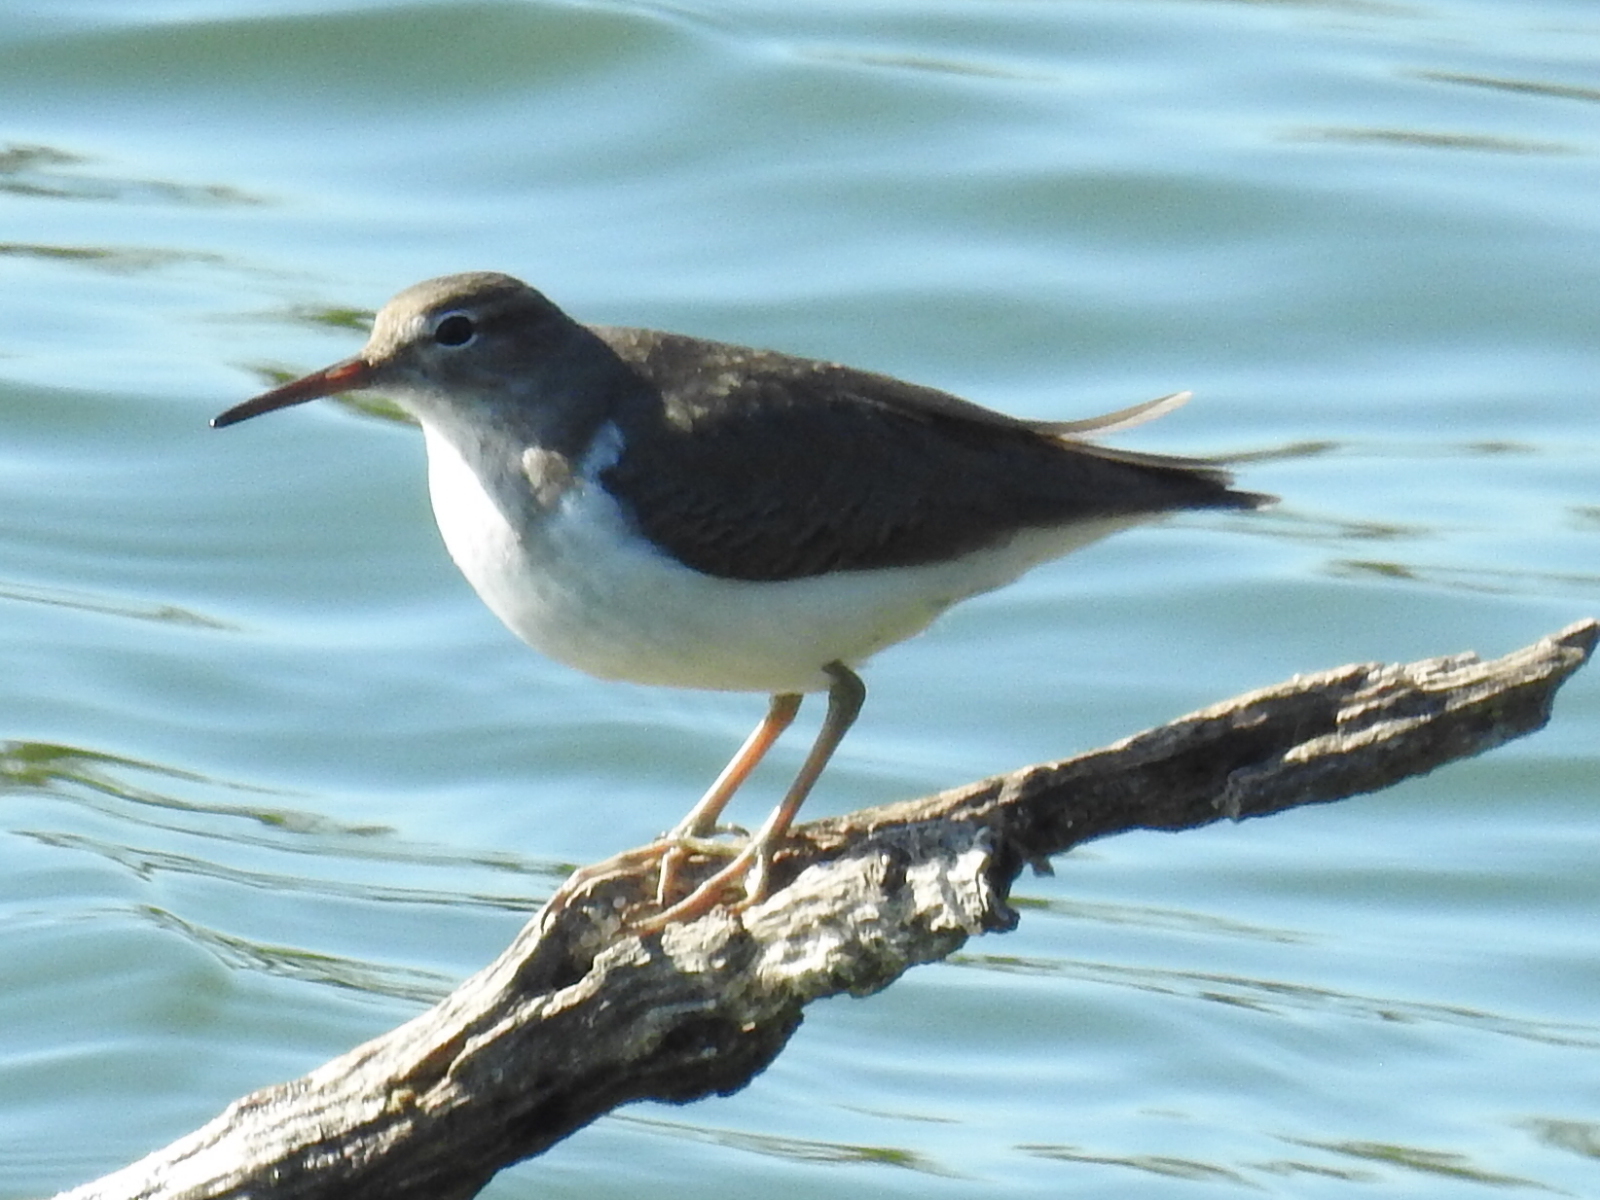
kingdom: Animalia
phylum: Chordata
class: Aves
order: Charadriiformes
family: Scolopacidae
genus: Actitis
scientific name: Actitis macularius
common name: Spotted sandpiper
